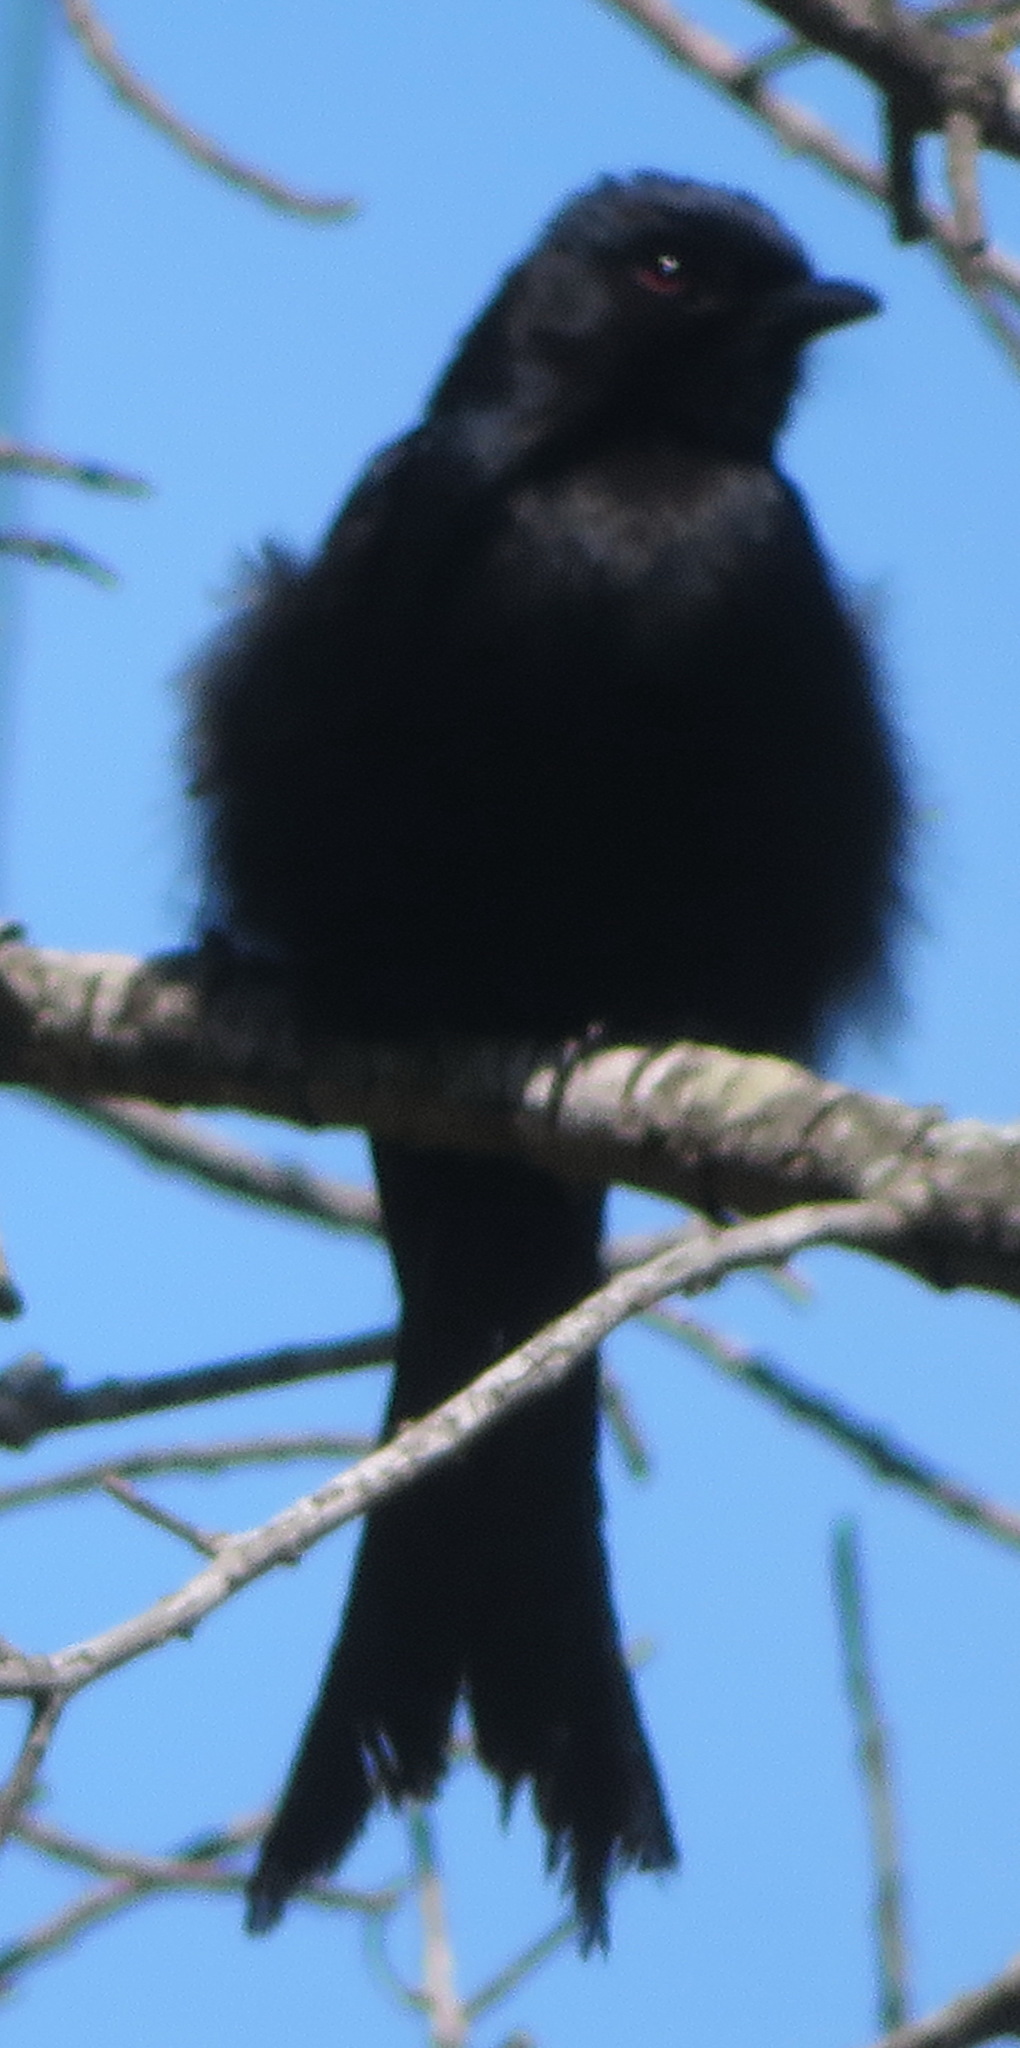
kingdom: Animalia
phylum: Chordata
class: Aves
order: Passeriformes
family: Dicruridae
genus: Dicrurus
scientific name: Dicrurus adsimilis
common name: Fork-tailed drongo
